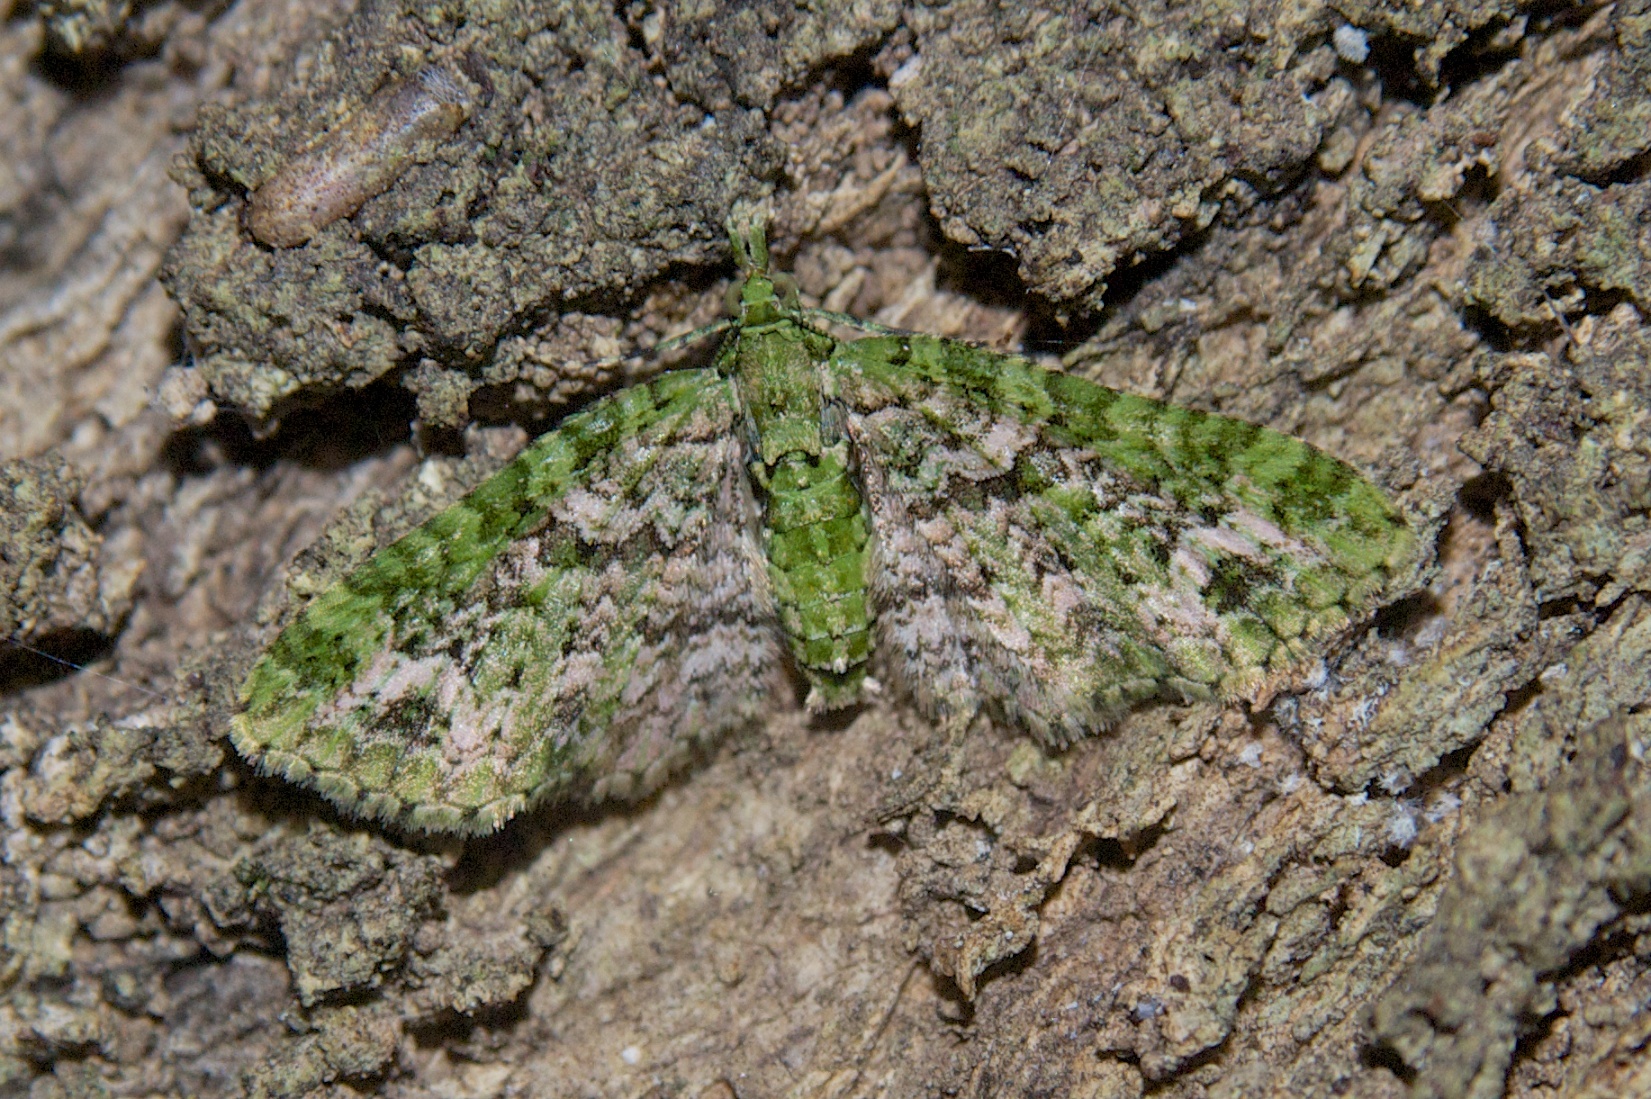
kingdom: Animalia
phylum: Arthropoda
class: Insecta
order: Lepidoptera
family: Geometridae
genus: Pasiphila
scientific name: Pasiphila muscosata
